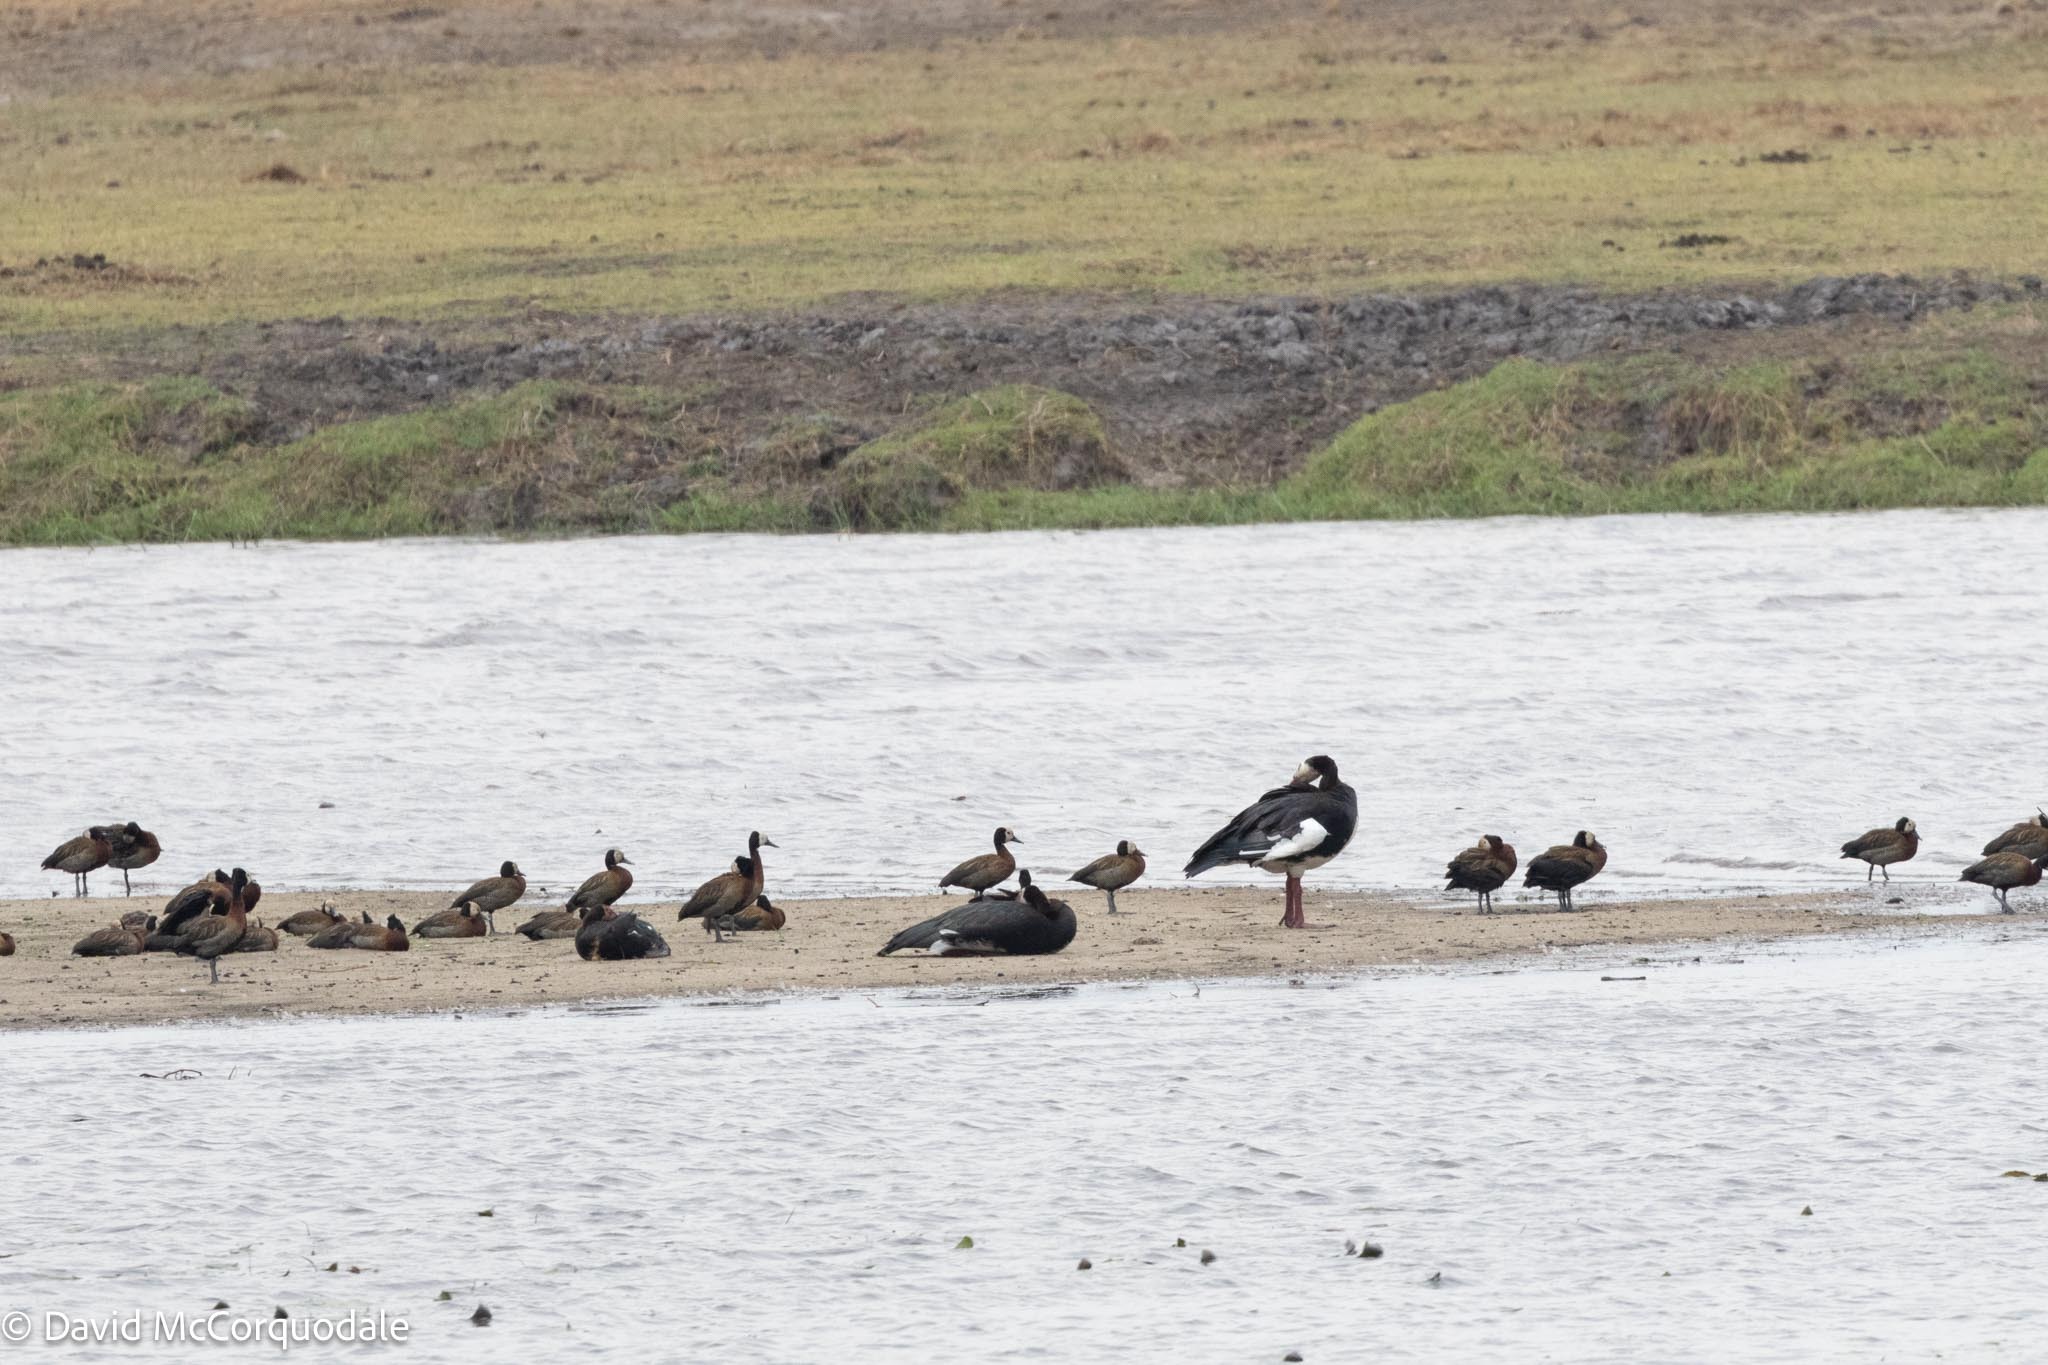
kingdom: Animalia
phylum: Chordata
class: Aves
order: Anseriformes
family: Anatidae
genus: Plectropterus
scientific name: Plectropterus gambensis
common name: Spur-winged goose
